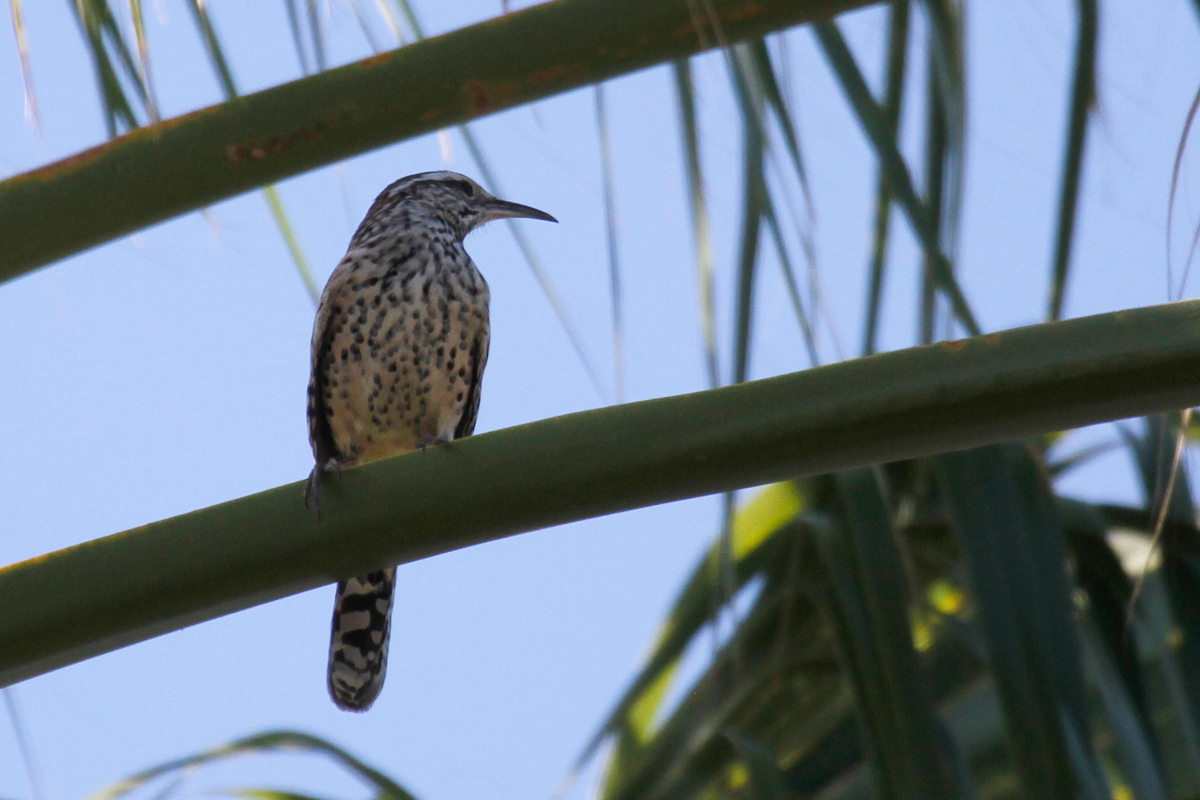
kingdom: Animalia
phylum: Chordata
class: Aves
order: Passeriformes
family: Troglodytidae
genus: Campylorhynchus
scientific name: Campylorhynchus brunneicapillus
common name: Cactus wren
